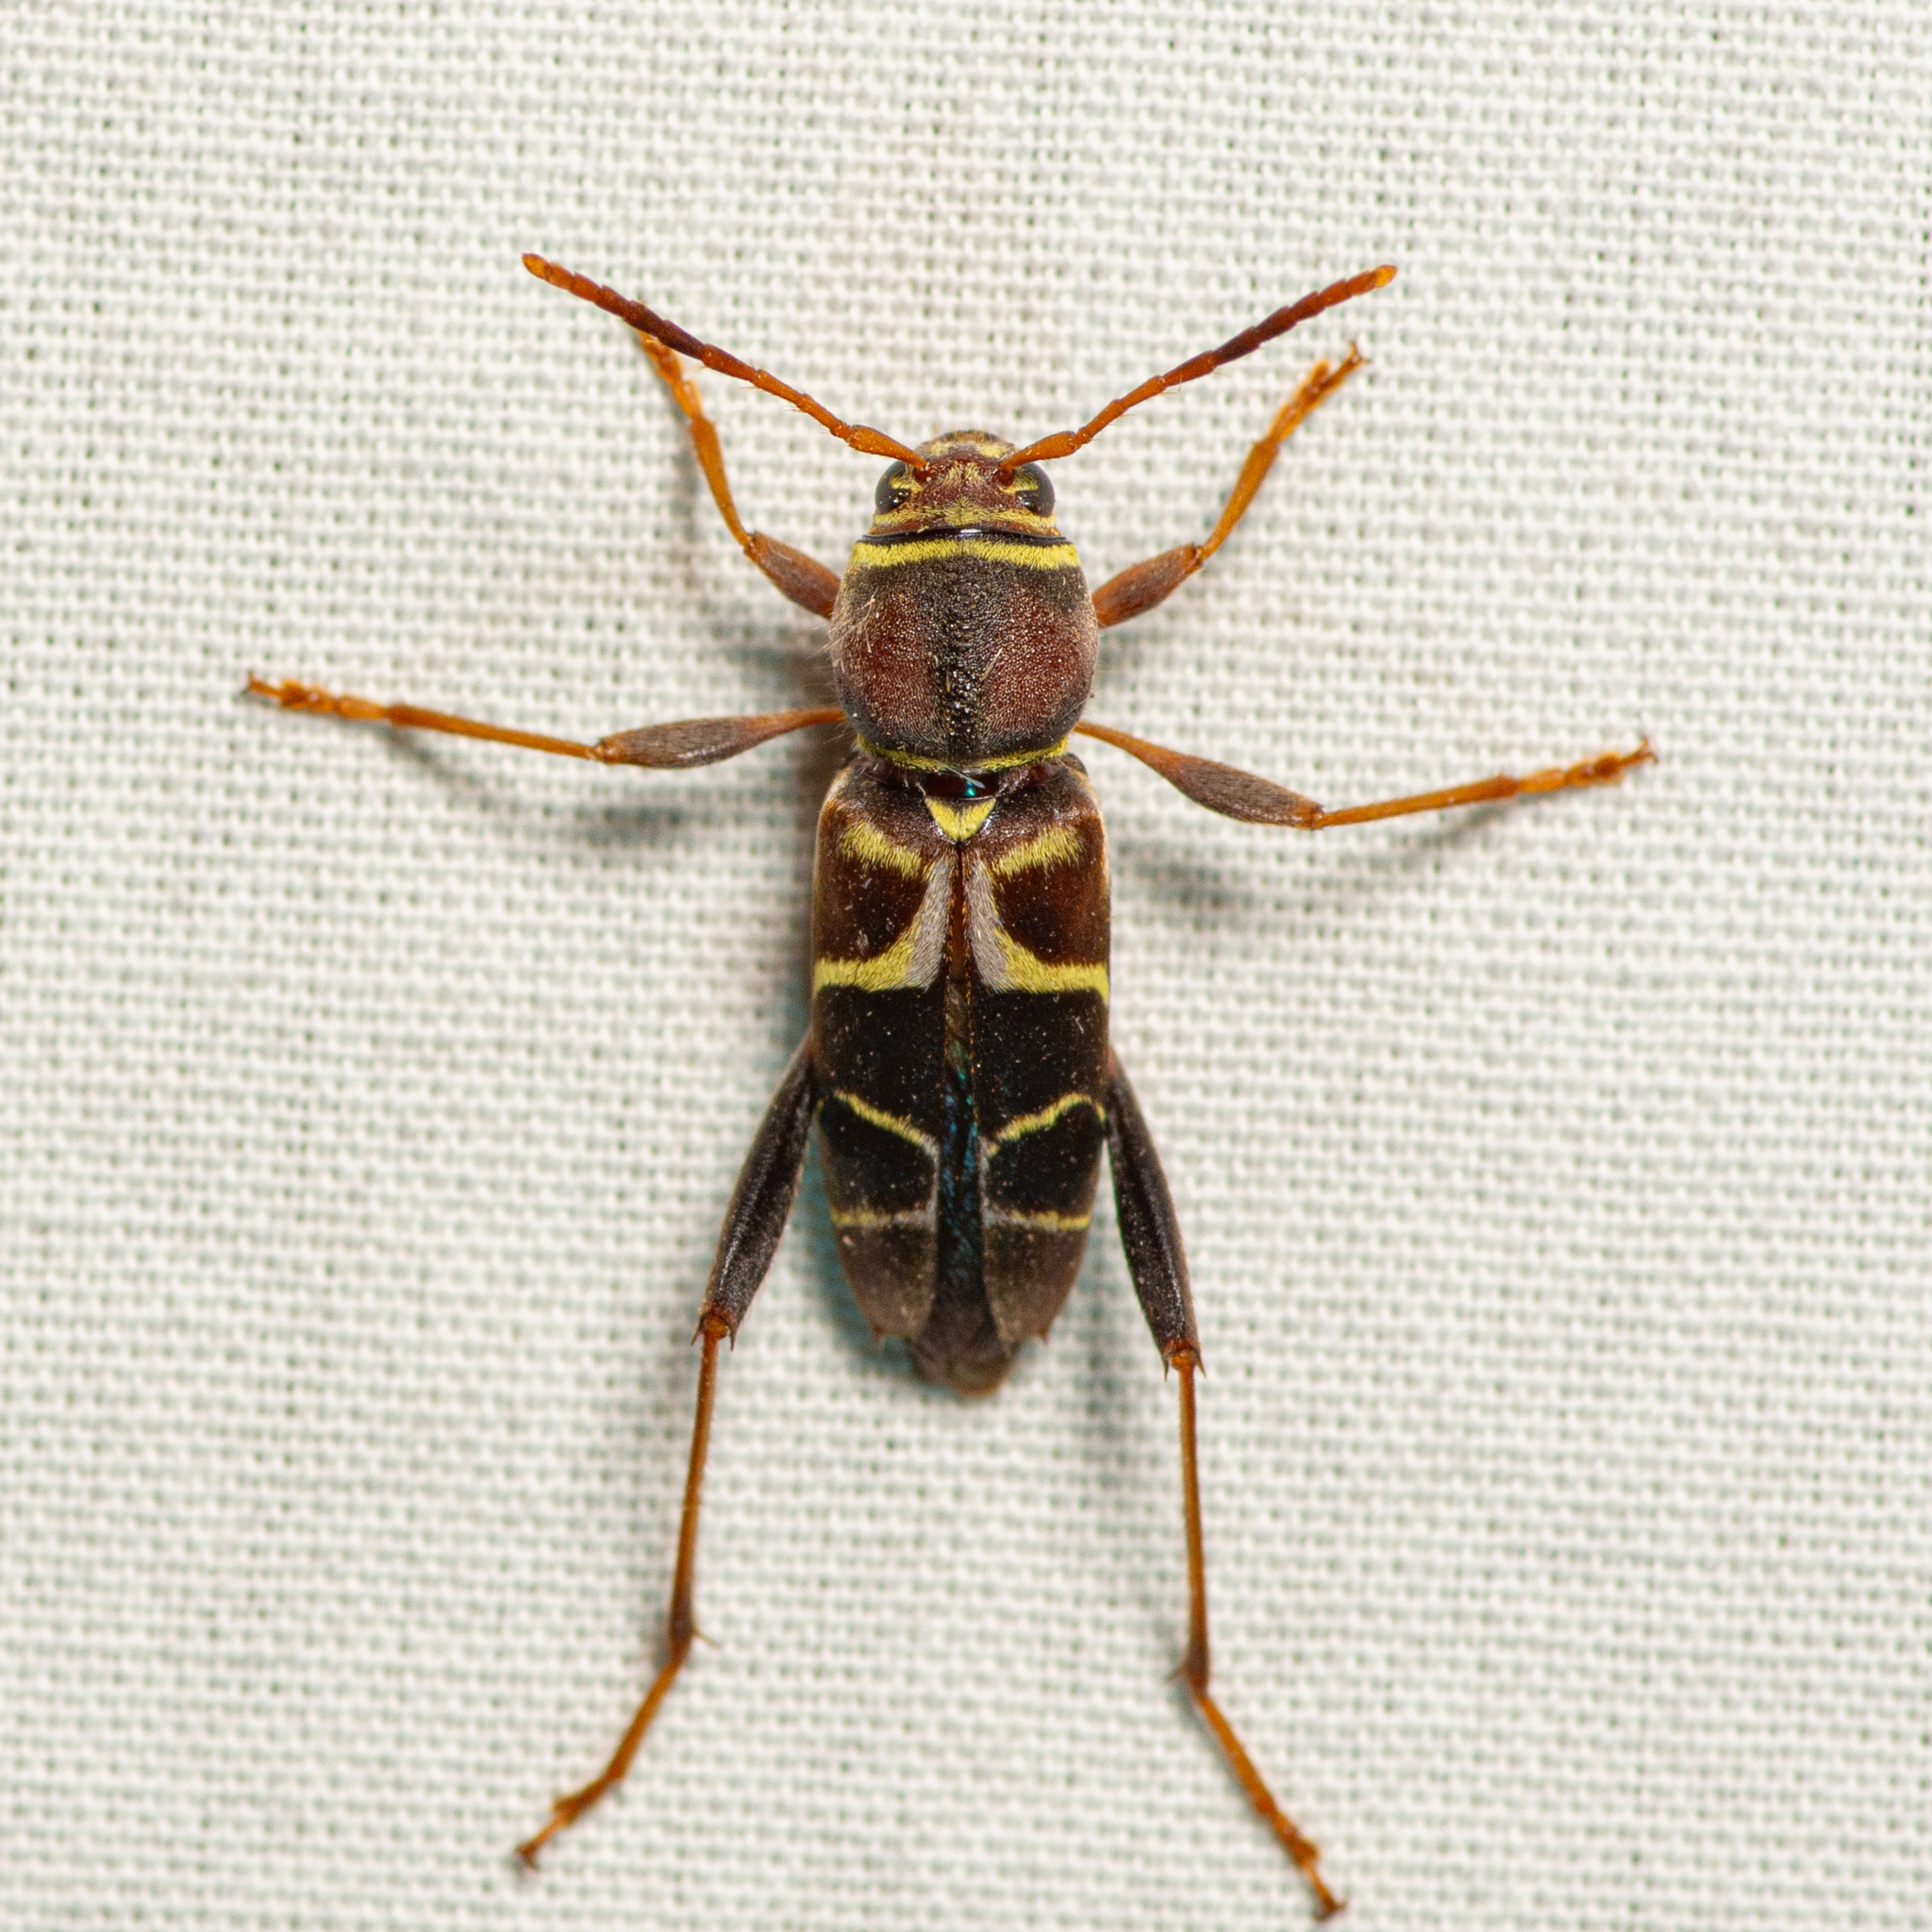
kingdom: Animalia
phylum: Arthropoda
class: Insecta
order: Coleoptera
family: Cerambycidae
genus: Neoclytus
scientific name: Neoclytus mucronatus
